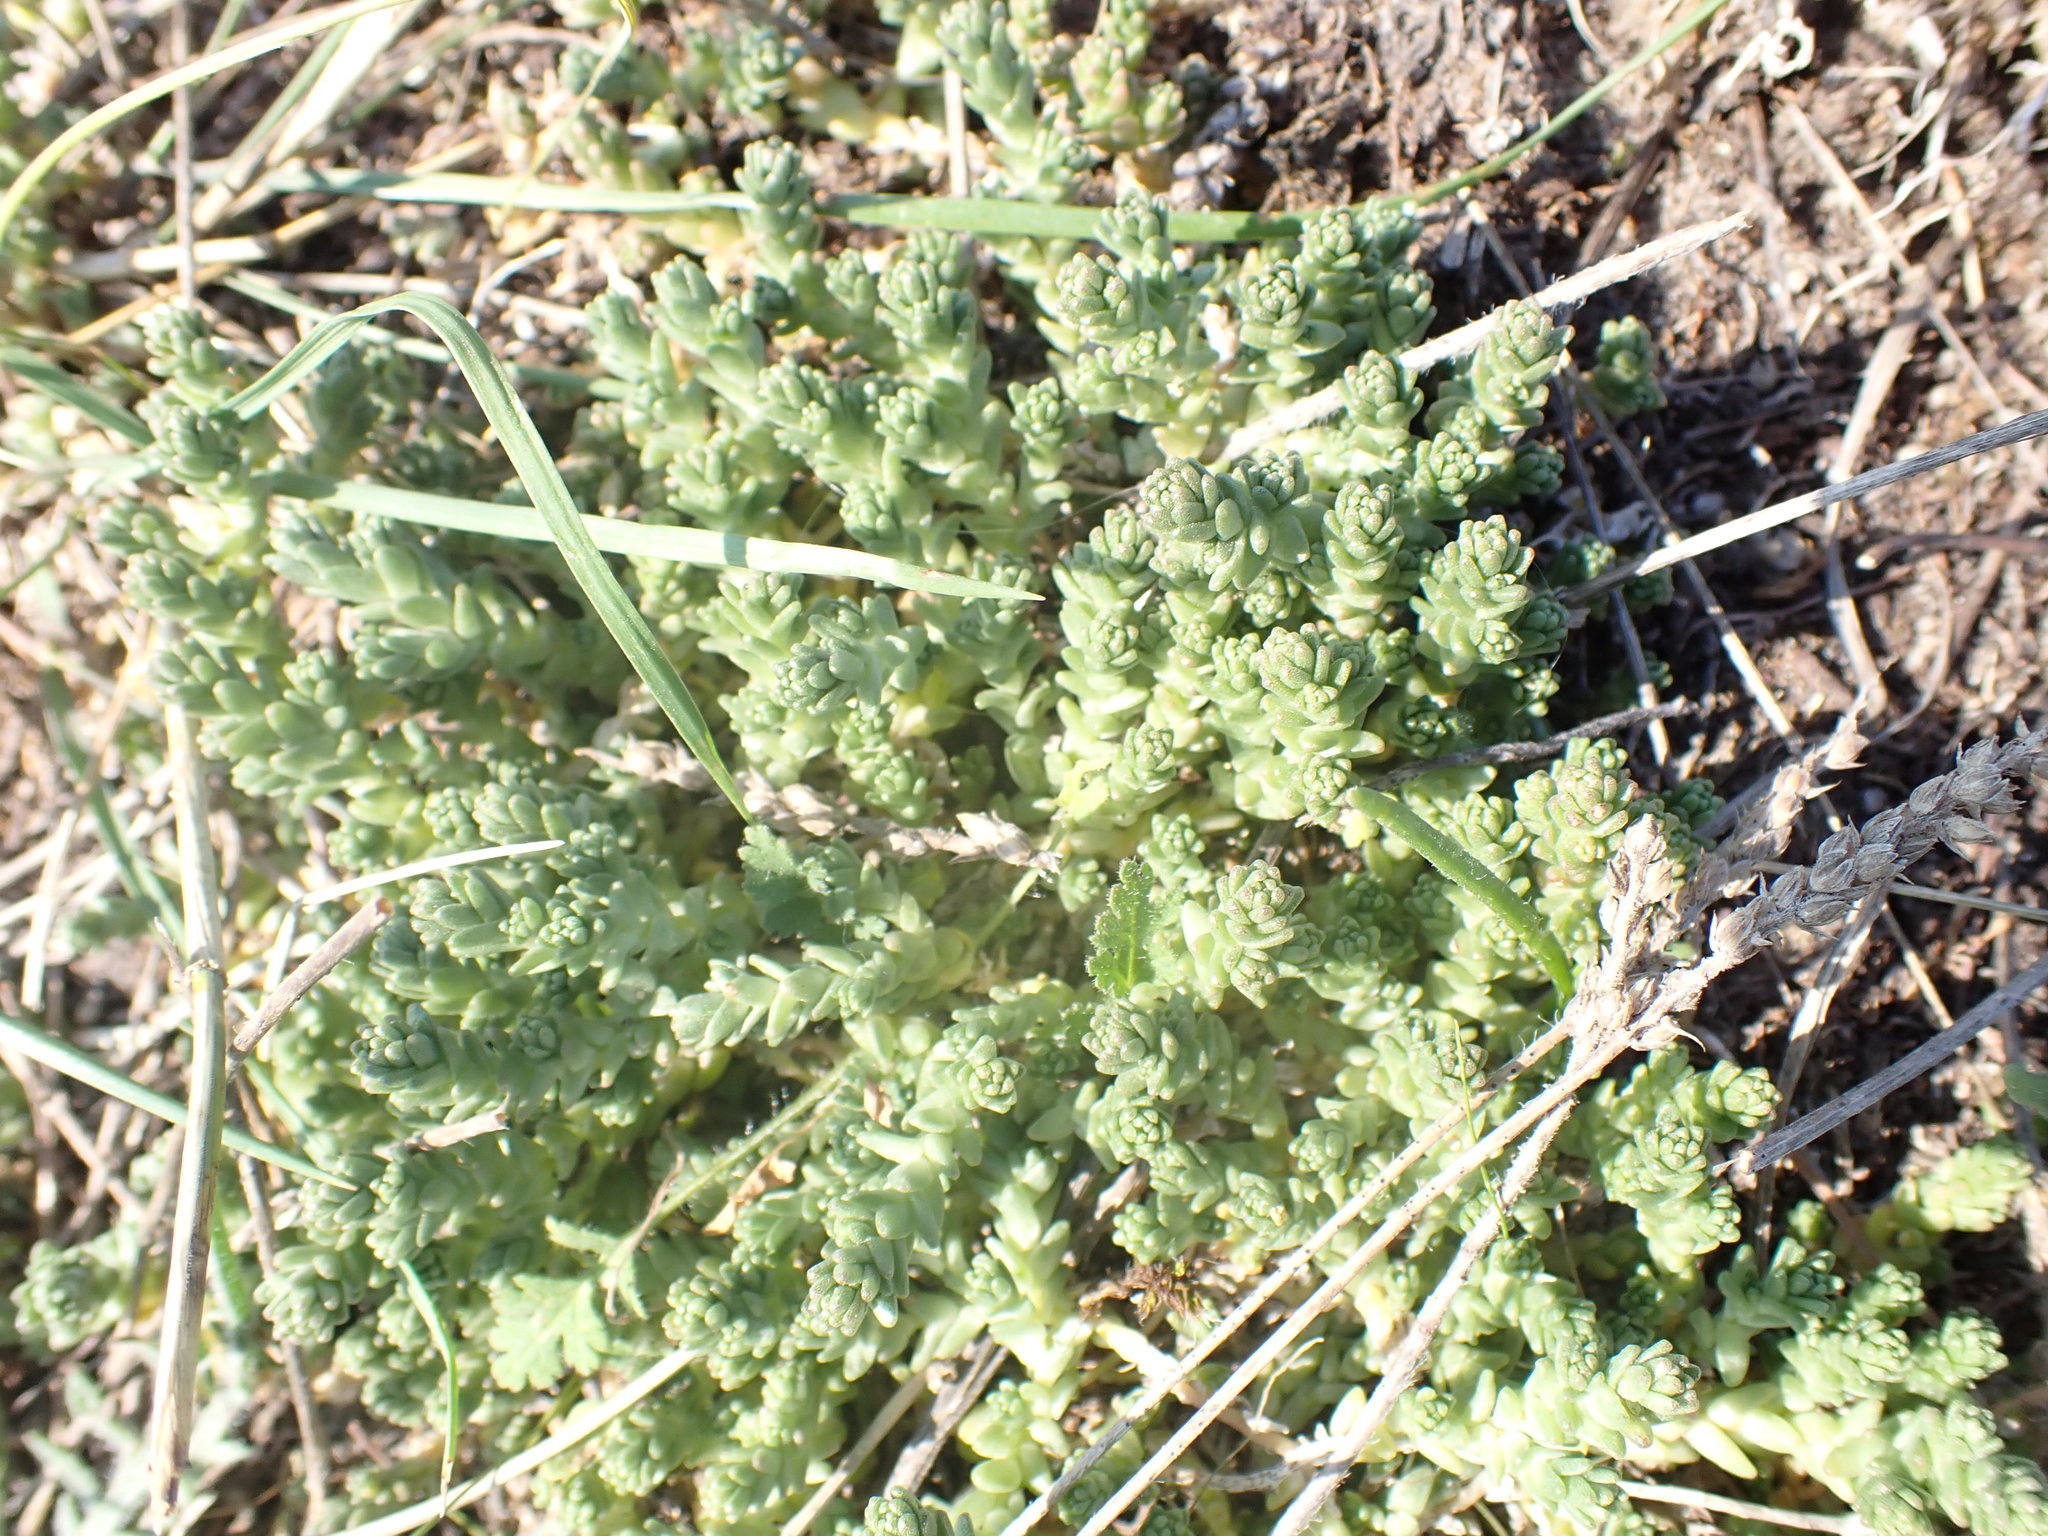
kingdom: Plantae
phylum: Tracheophyta
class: Magnoliopsida
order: Saxifragales
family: Crassulaceae
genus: Sedum
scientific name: Sedum acre
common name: Biting stonecrop
